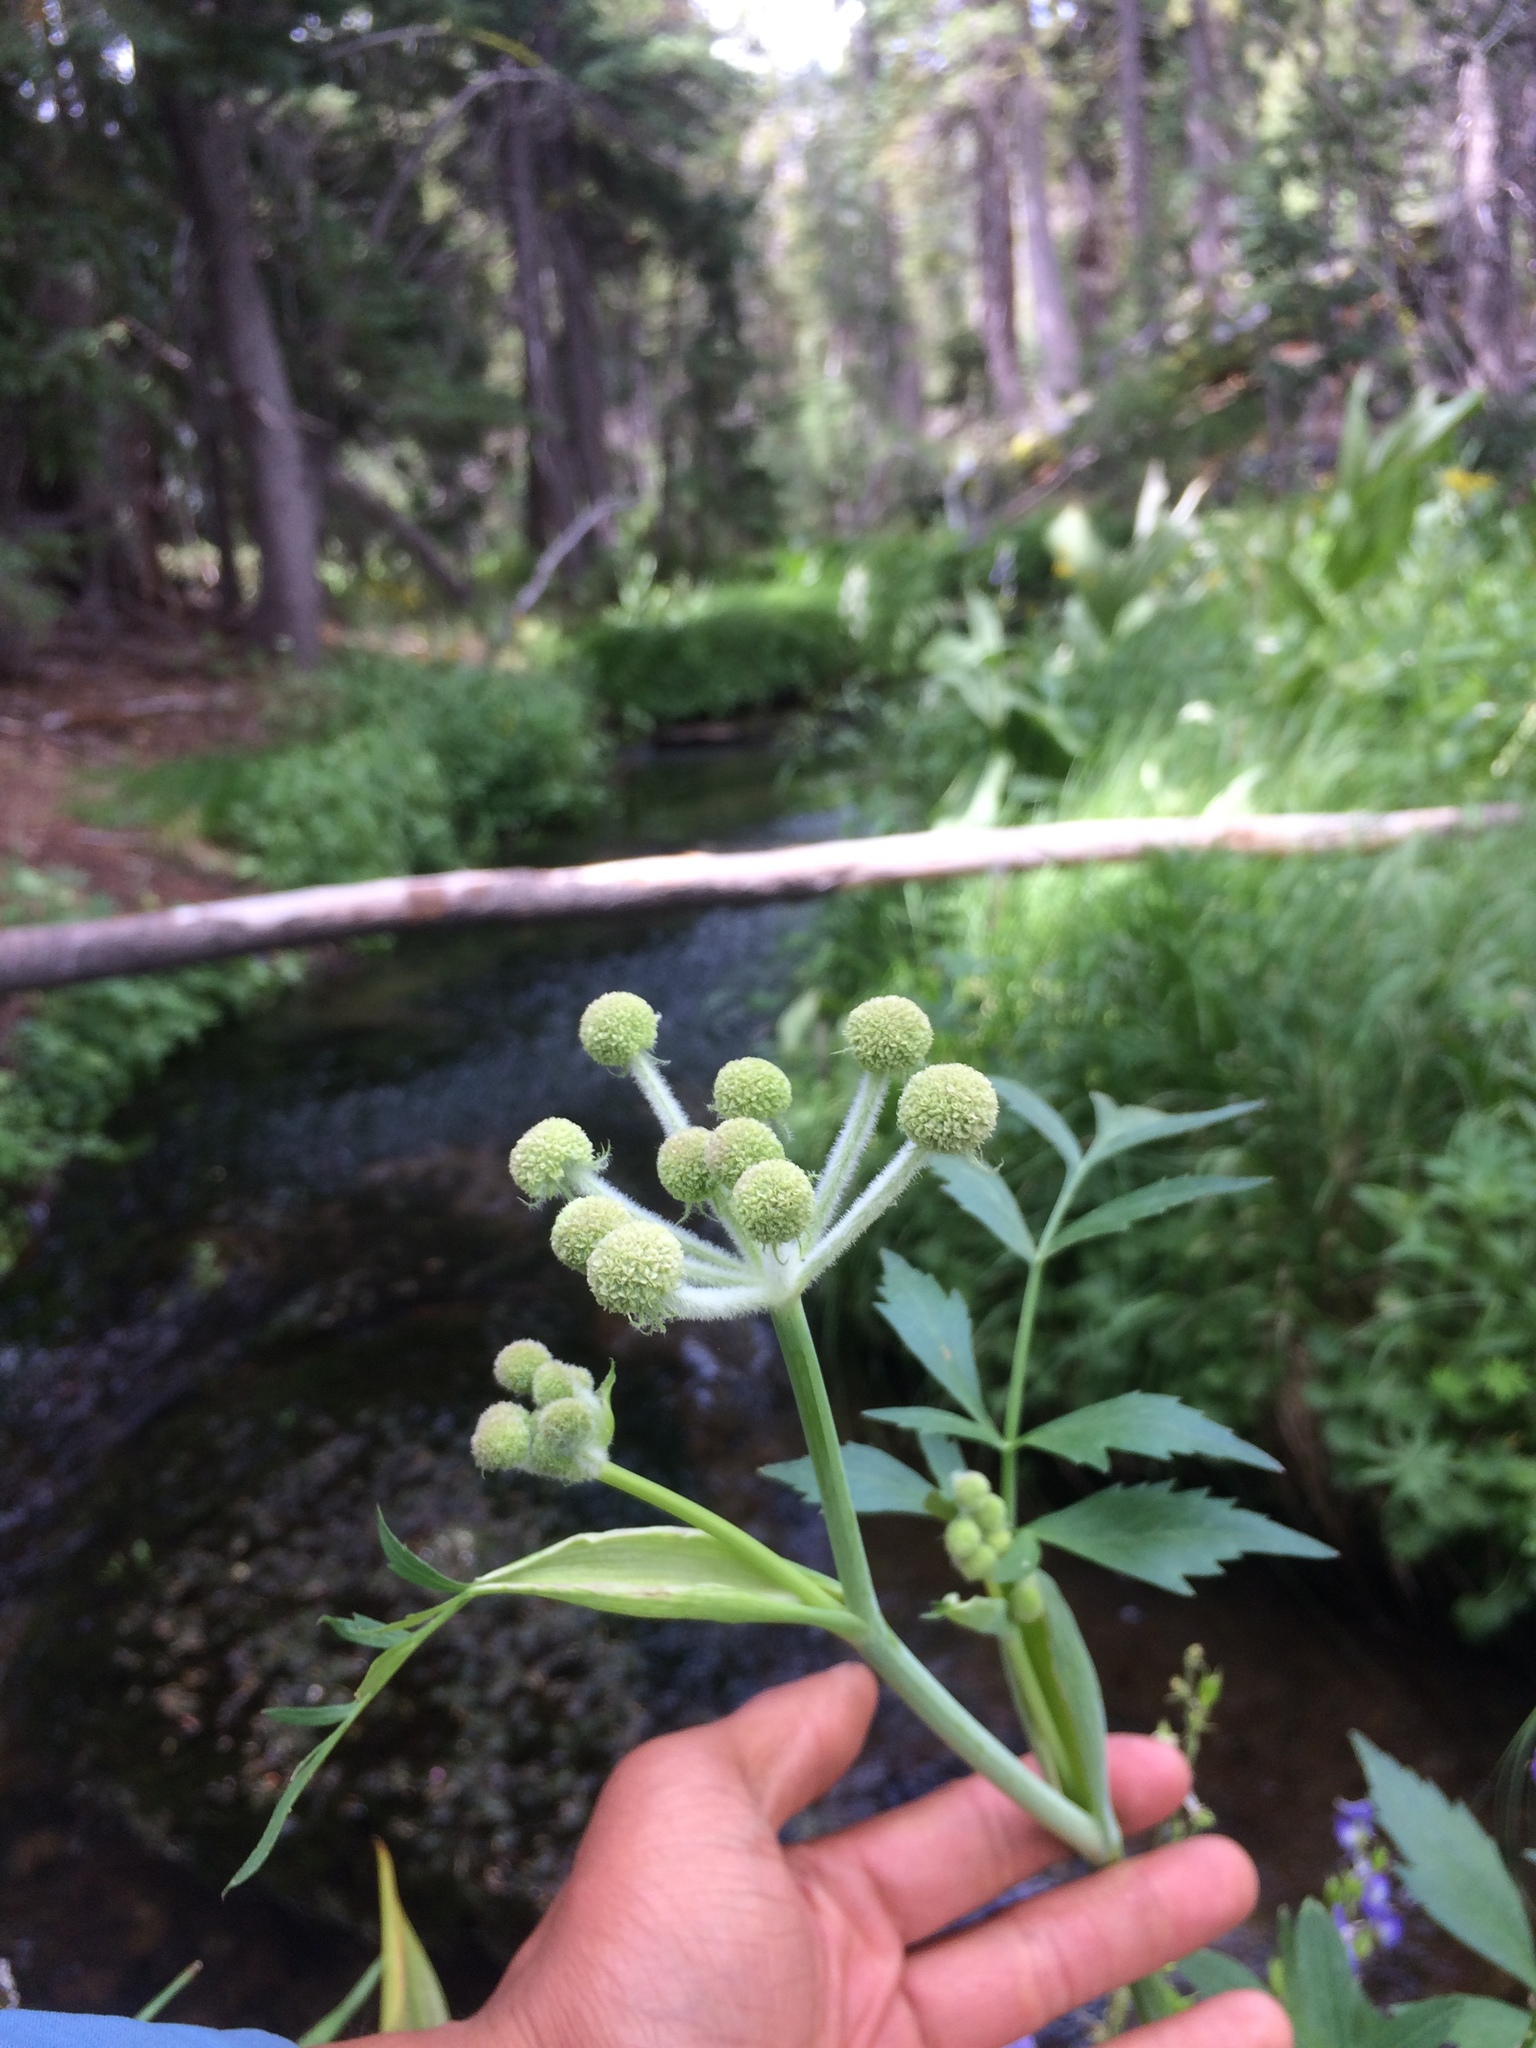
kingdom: Plantae
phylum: Tracheophyta
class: Magnoliopsida
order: Apiales
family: Apiaceae
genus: Angelica
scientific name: Angelica capitellata
